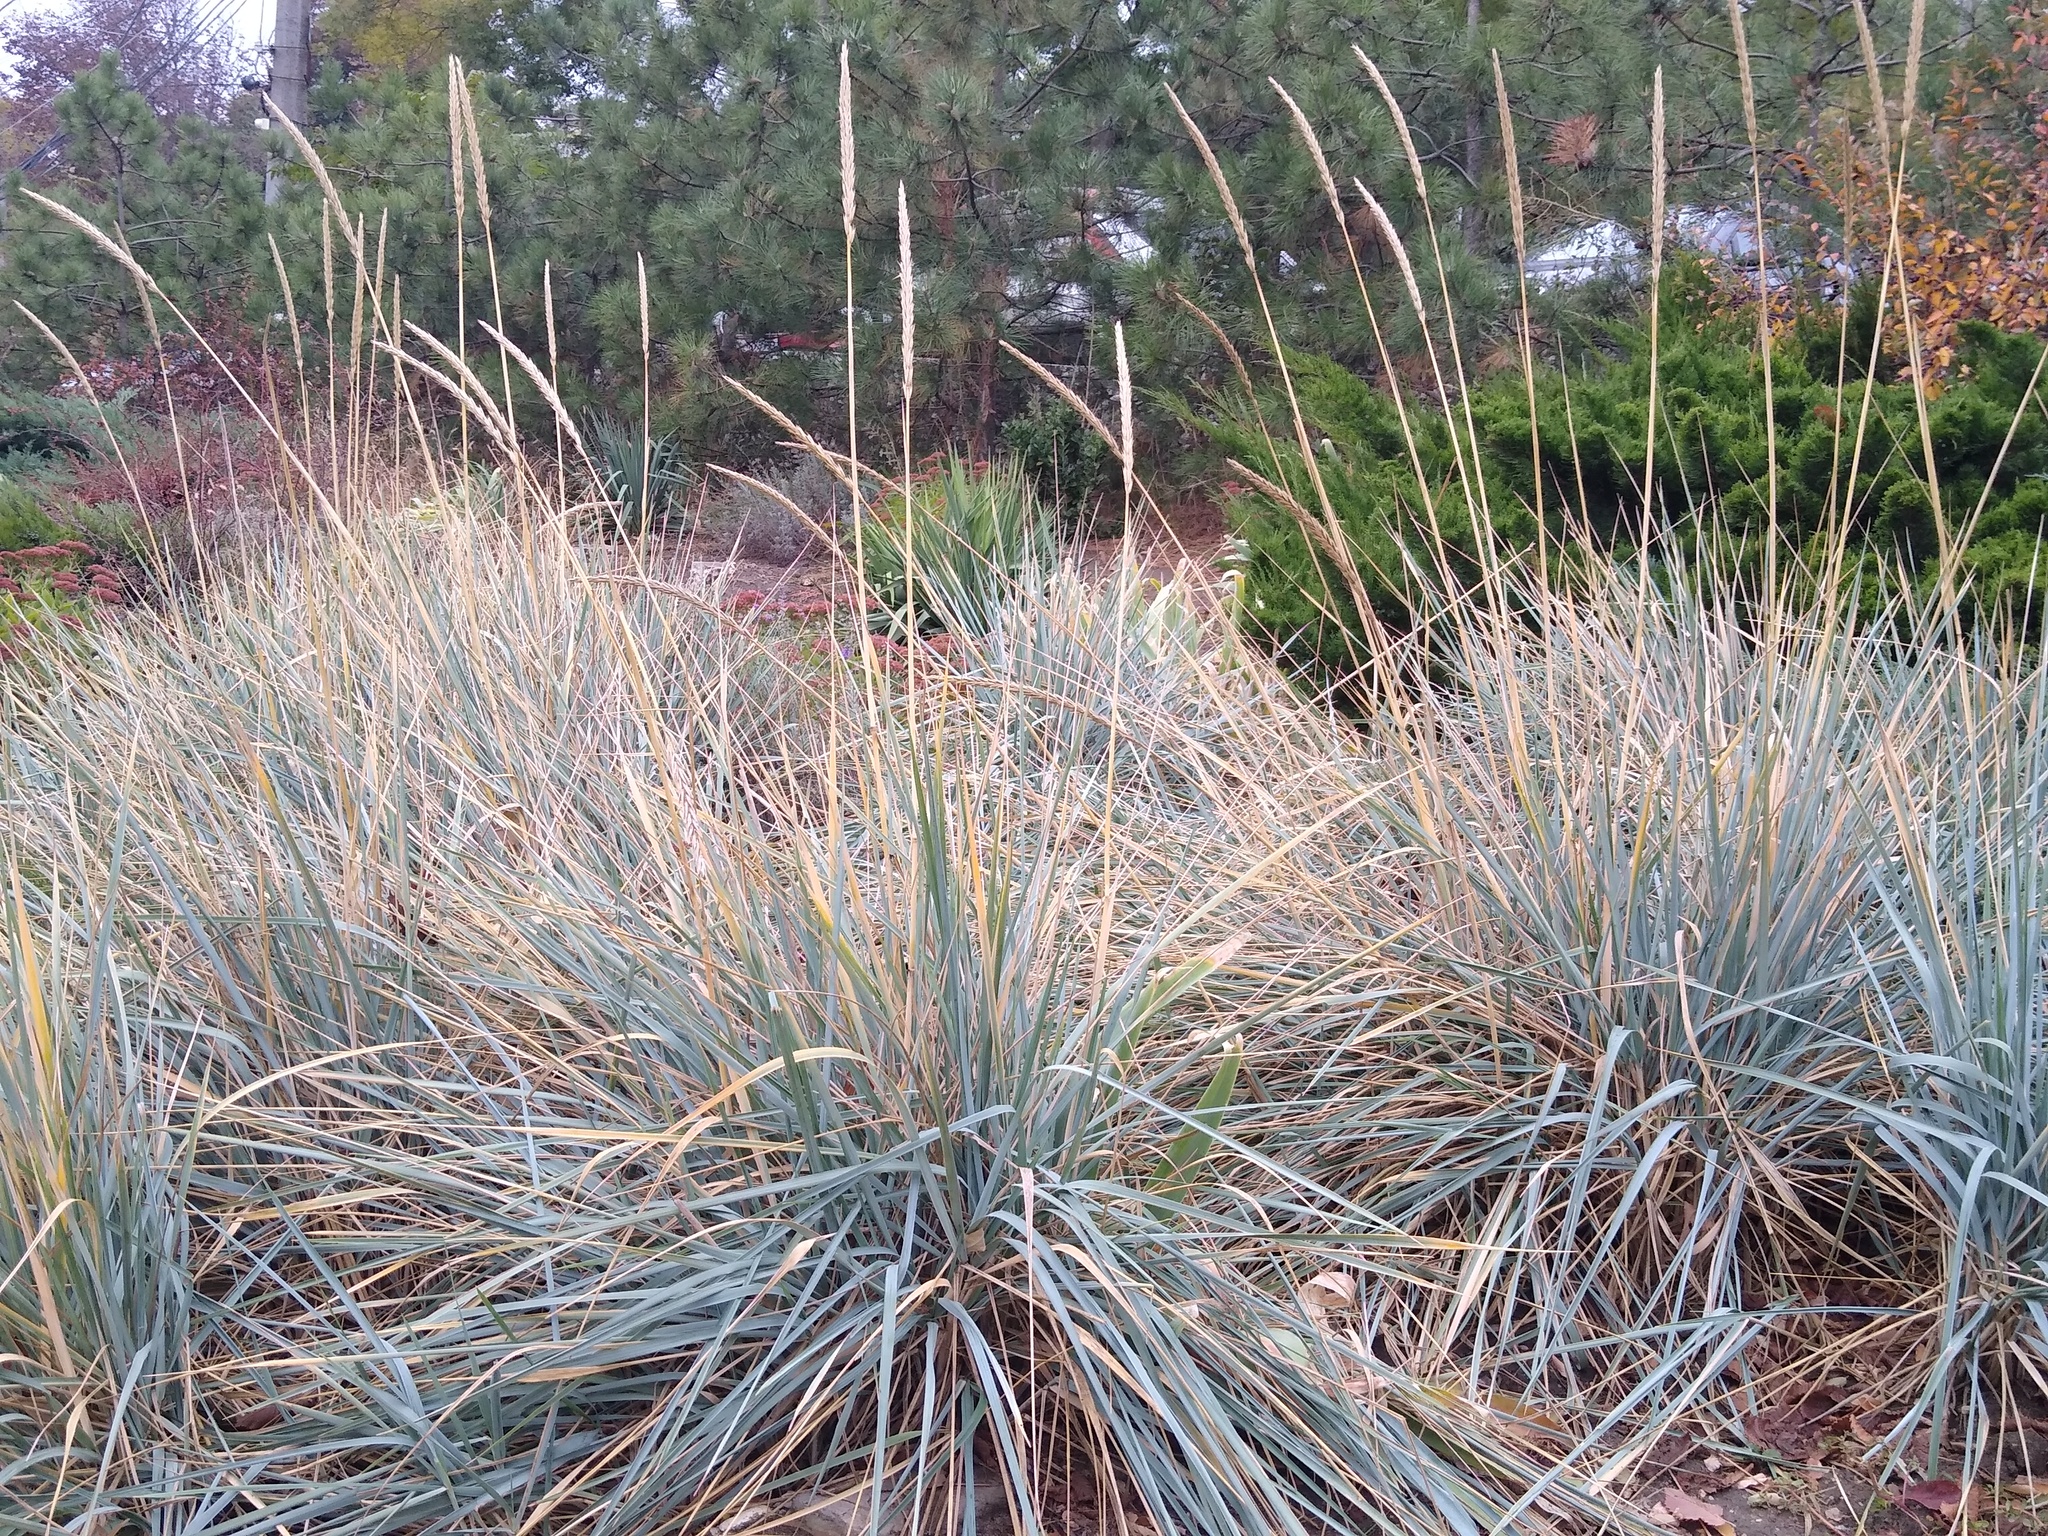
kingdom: Plantae
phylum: Tracheophyta
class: Liliopsida
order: Poales
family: Poaceae
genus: Leymus
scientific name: Leymus racemosus
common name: Mammoth wildrye
